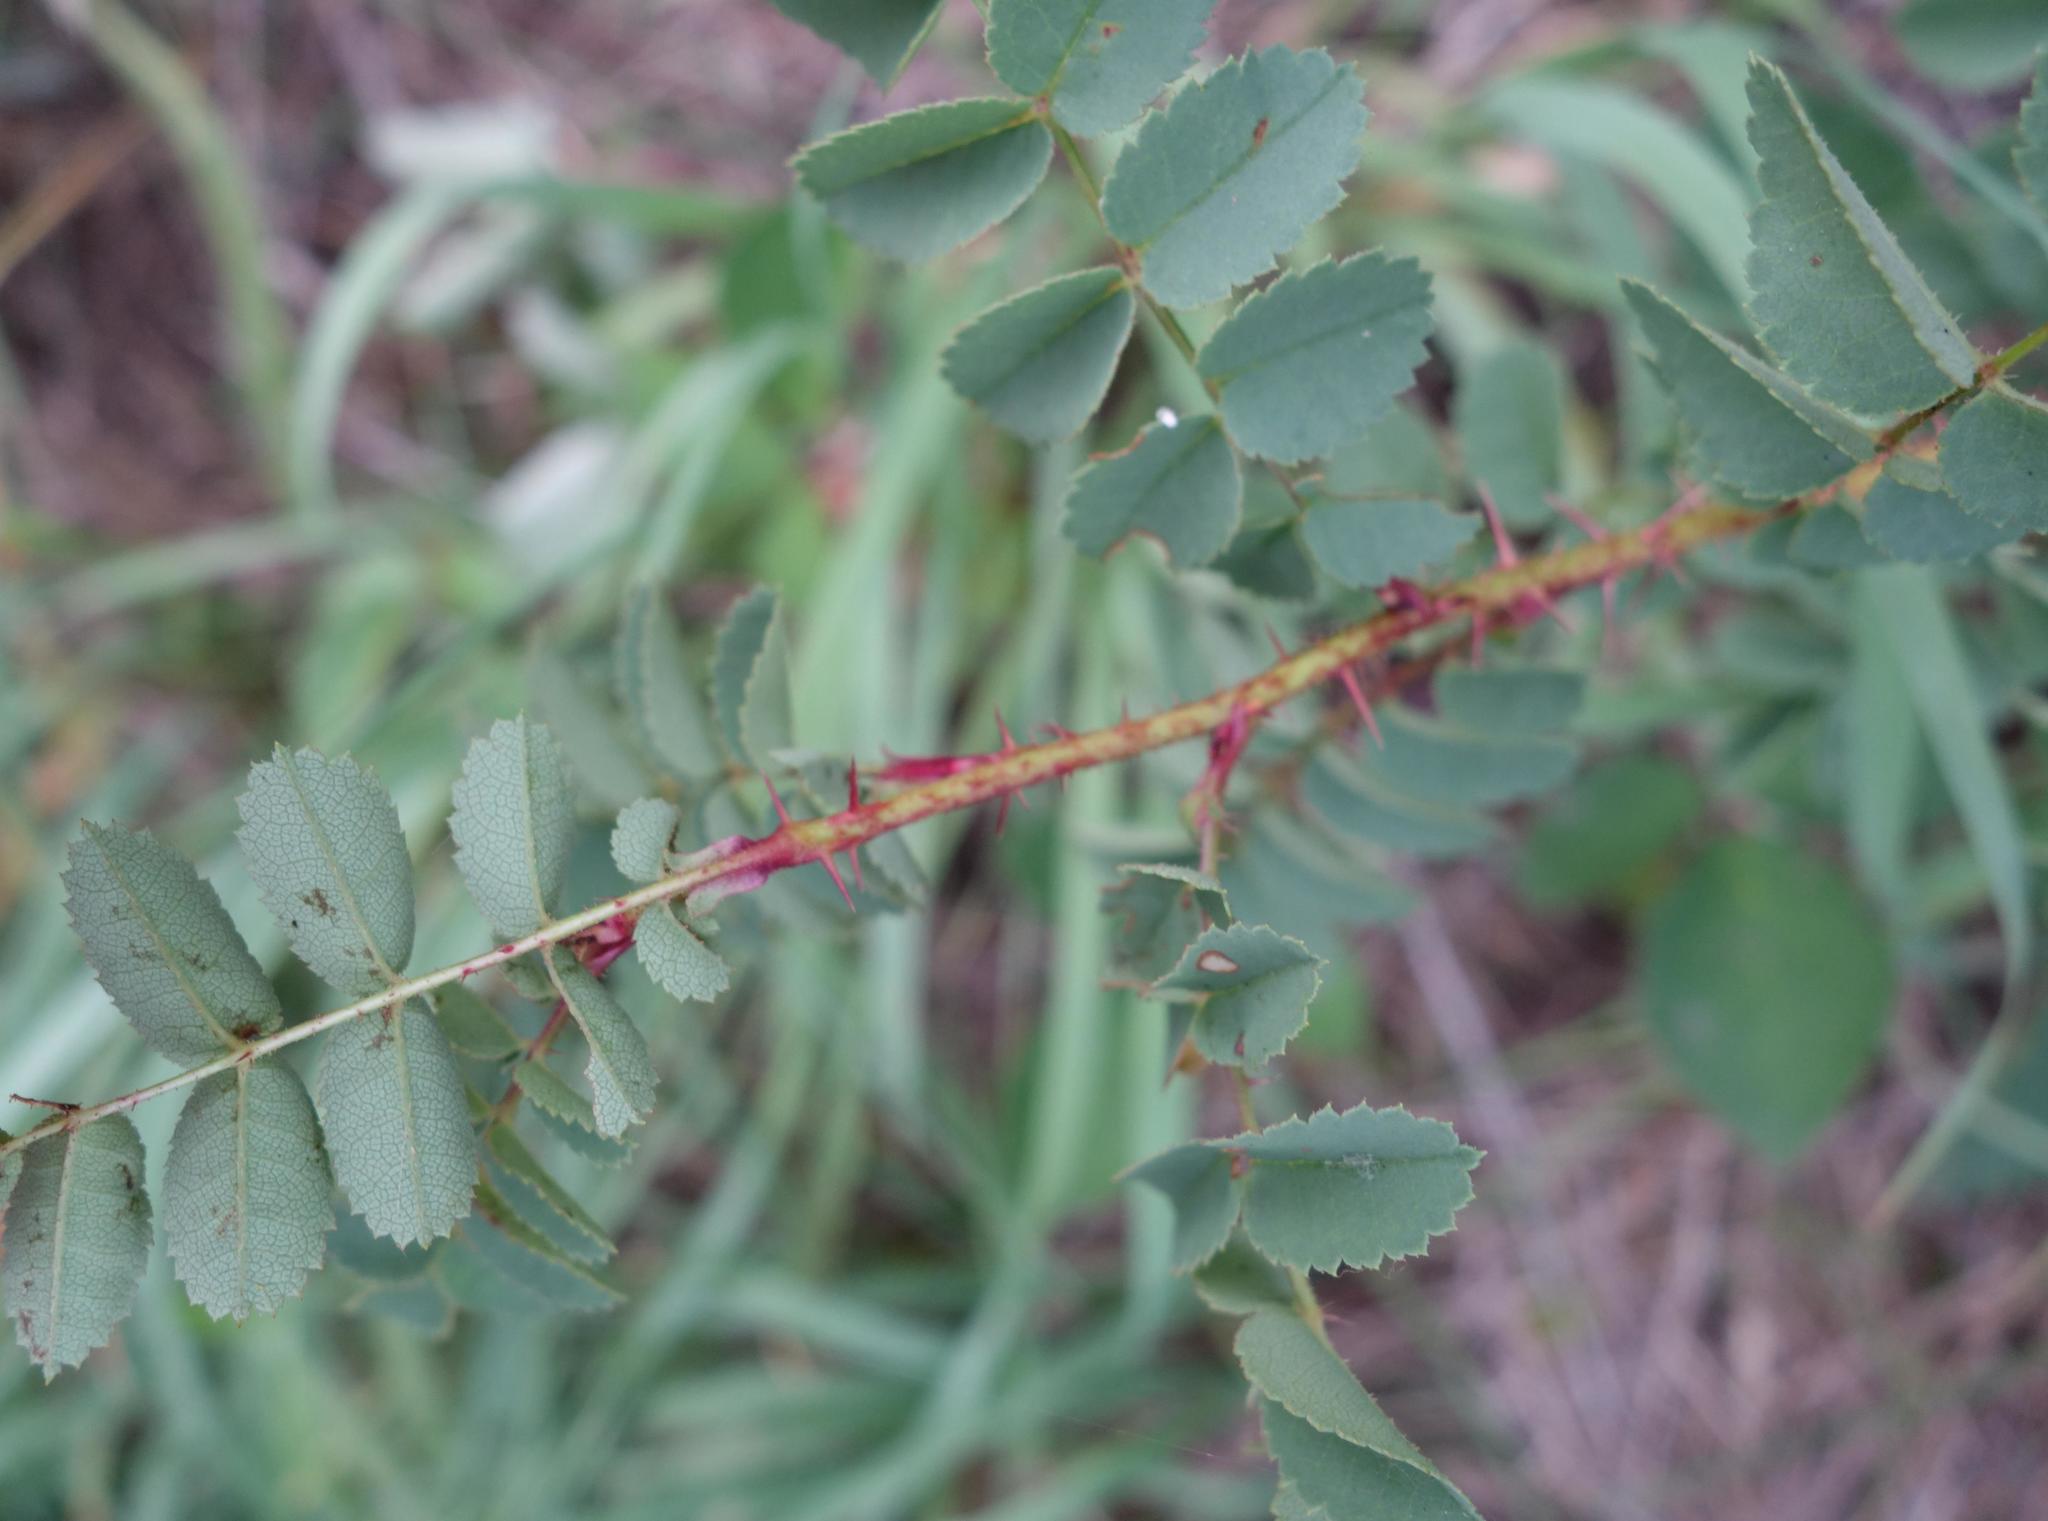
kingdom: Plantae
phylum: Tracheophyta
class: Magnoliopsida
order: Rosales
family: Rosaceae
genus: Rosa
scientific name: Rosa spinosissima
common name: Burnet rose
